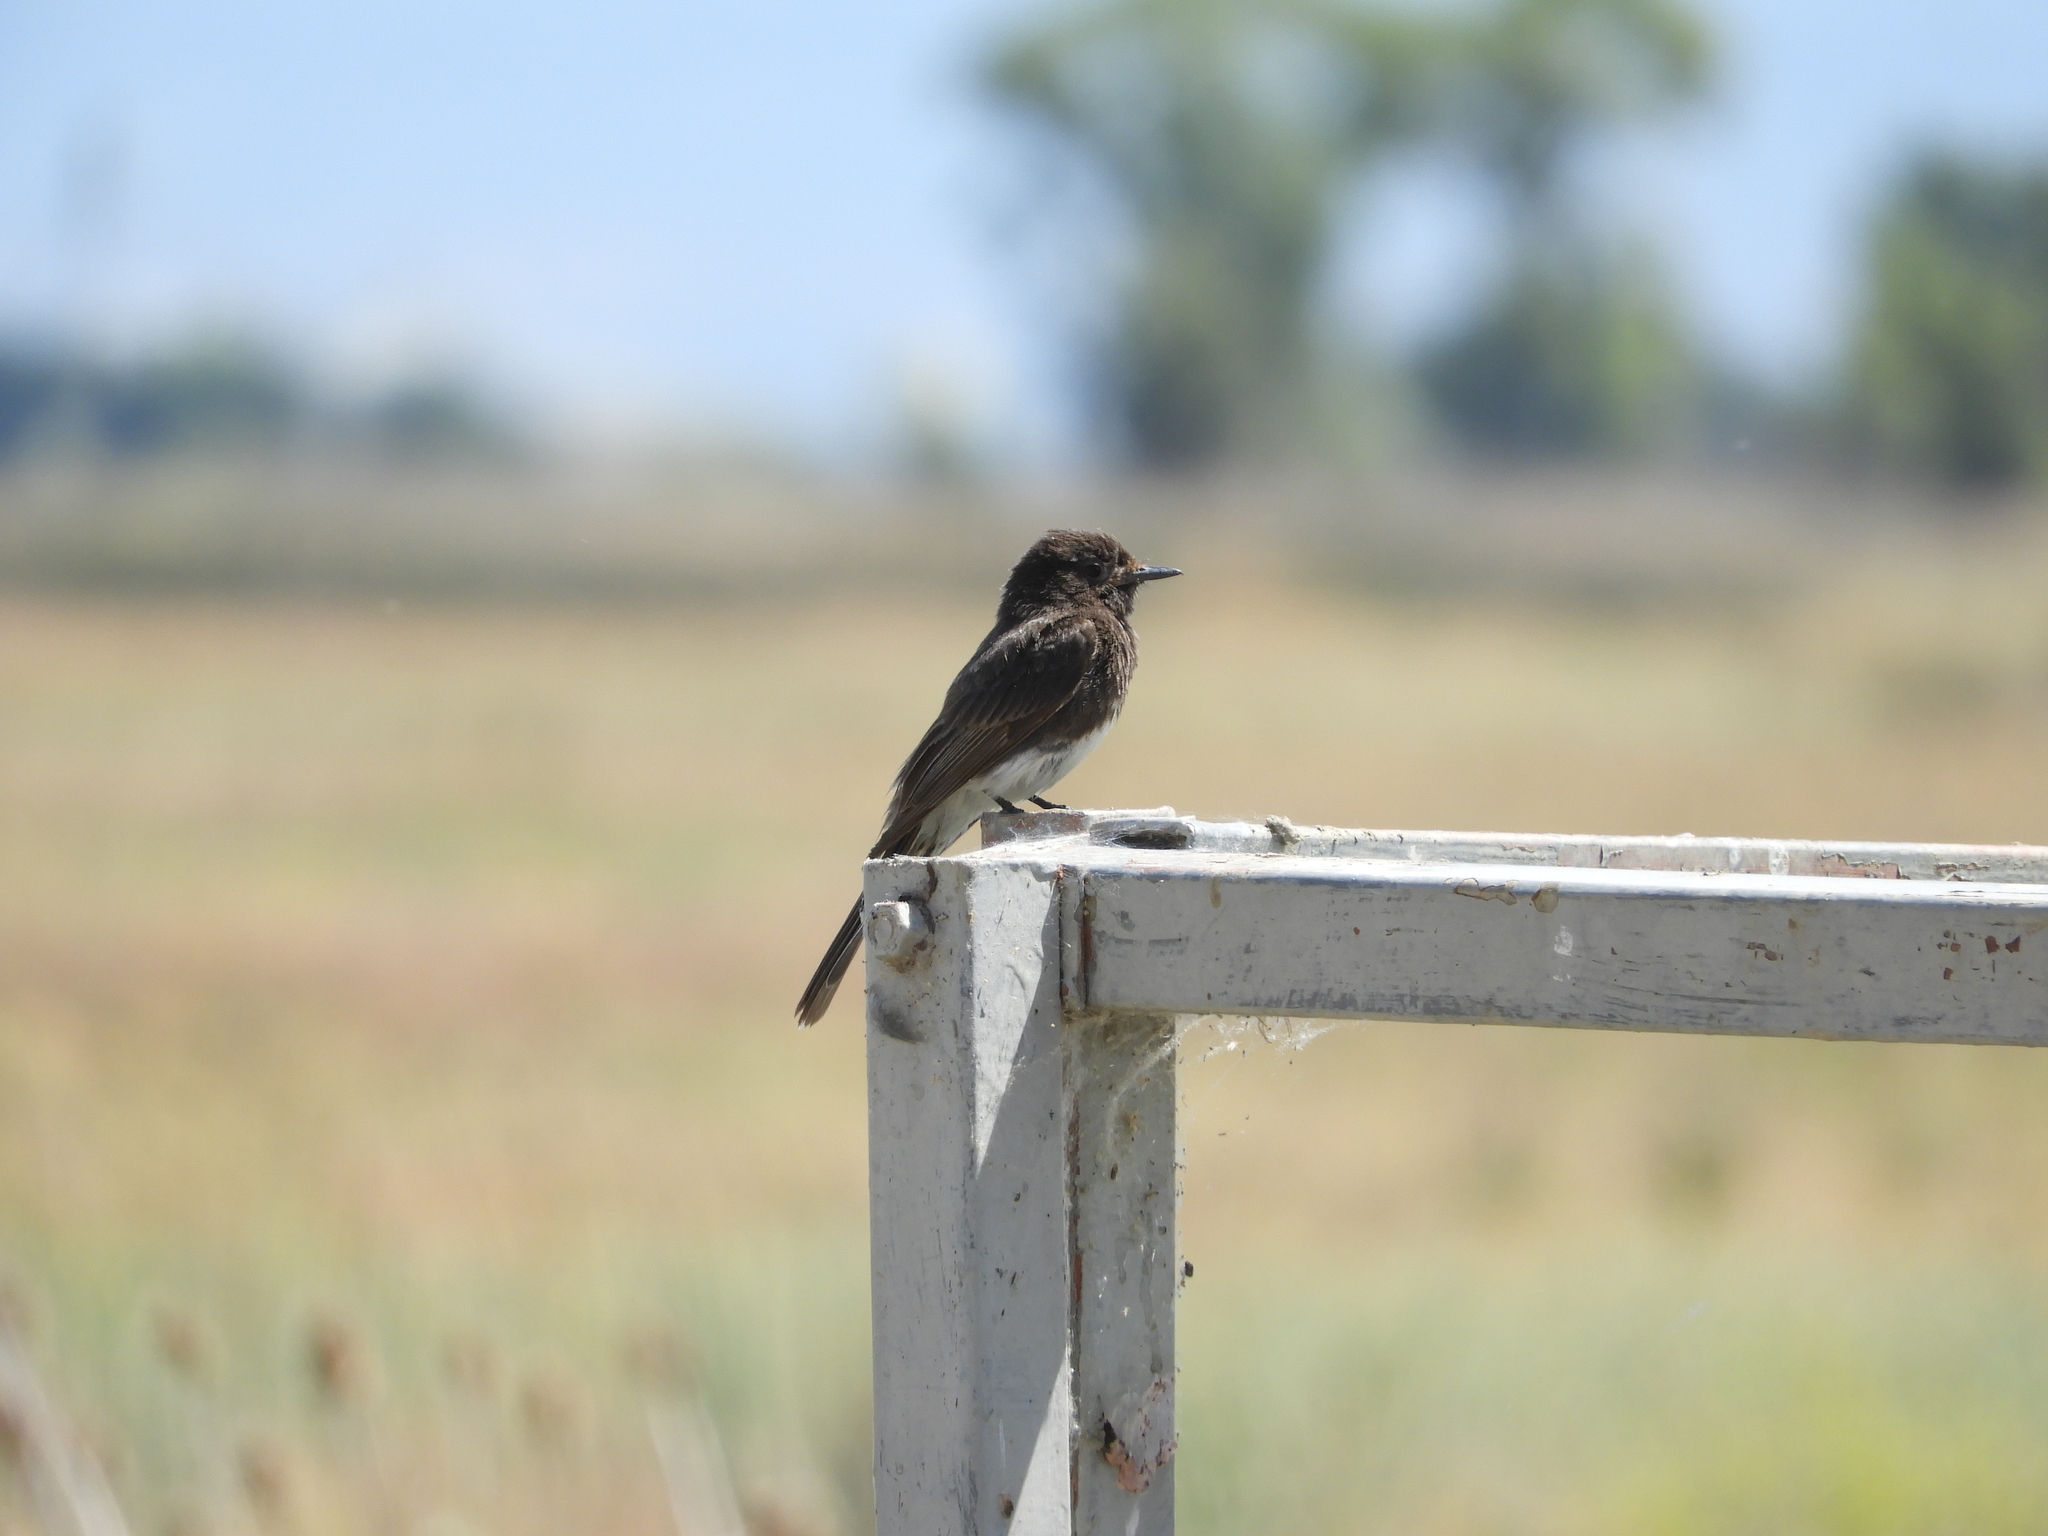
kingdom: Animalia
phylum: Chordata
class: Aves
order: Passeriformes
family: Tyrannidae
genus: Sayornis
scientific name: Sayornis nigricans
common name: Black phoebe
